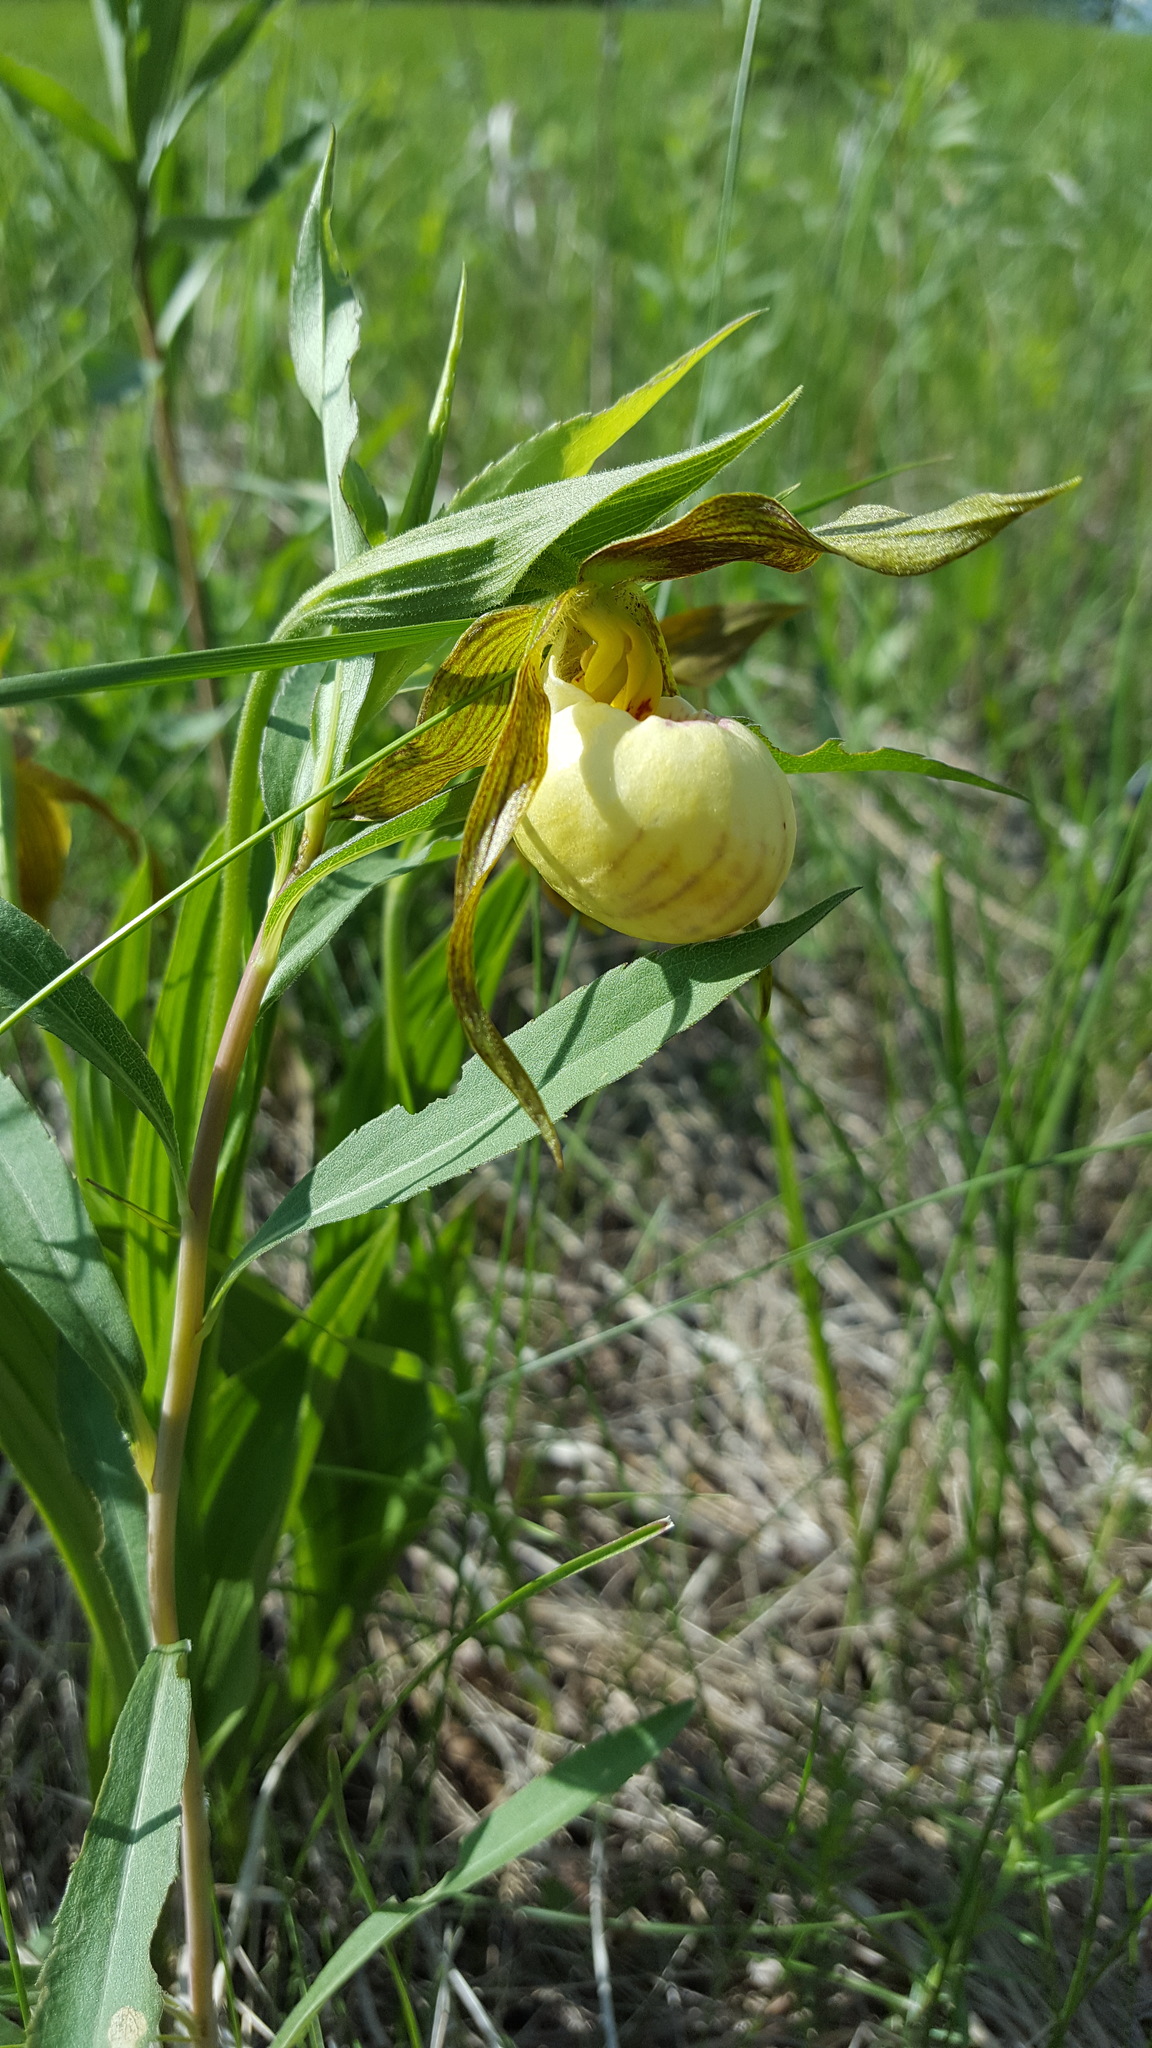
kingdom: Plantae
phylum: Tracheophyta
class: Liliopsida
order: Asparagales
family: Orchidaceae
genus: Cypripedium
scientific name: Cypripedium andrewsii
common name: Andrew's lady's-slipper
